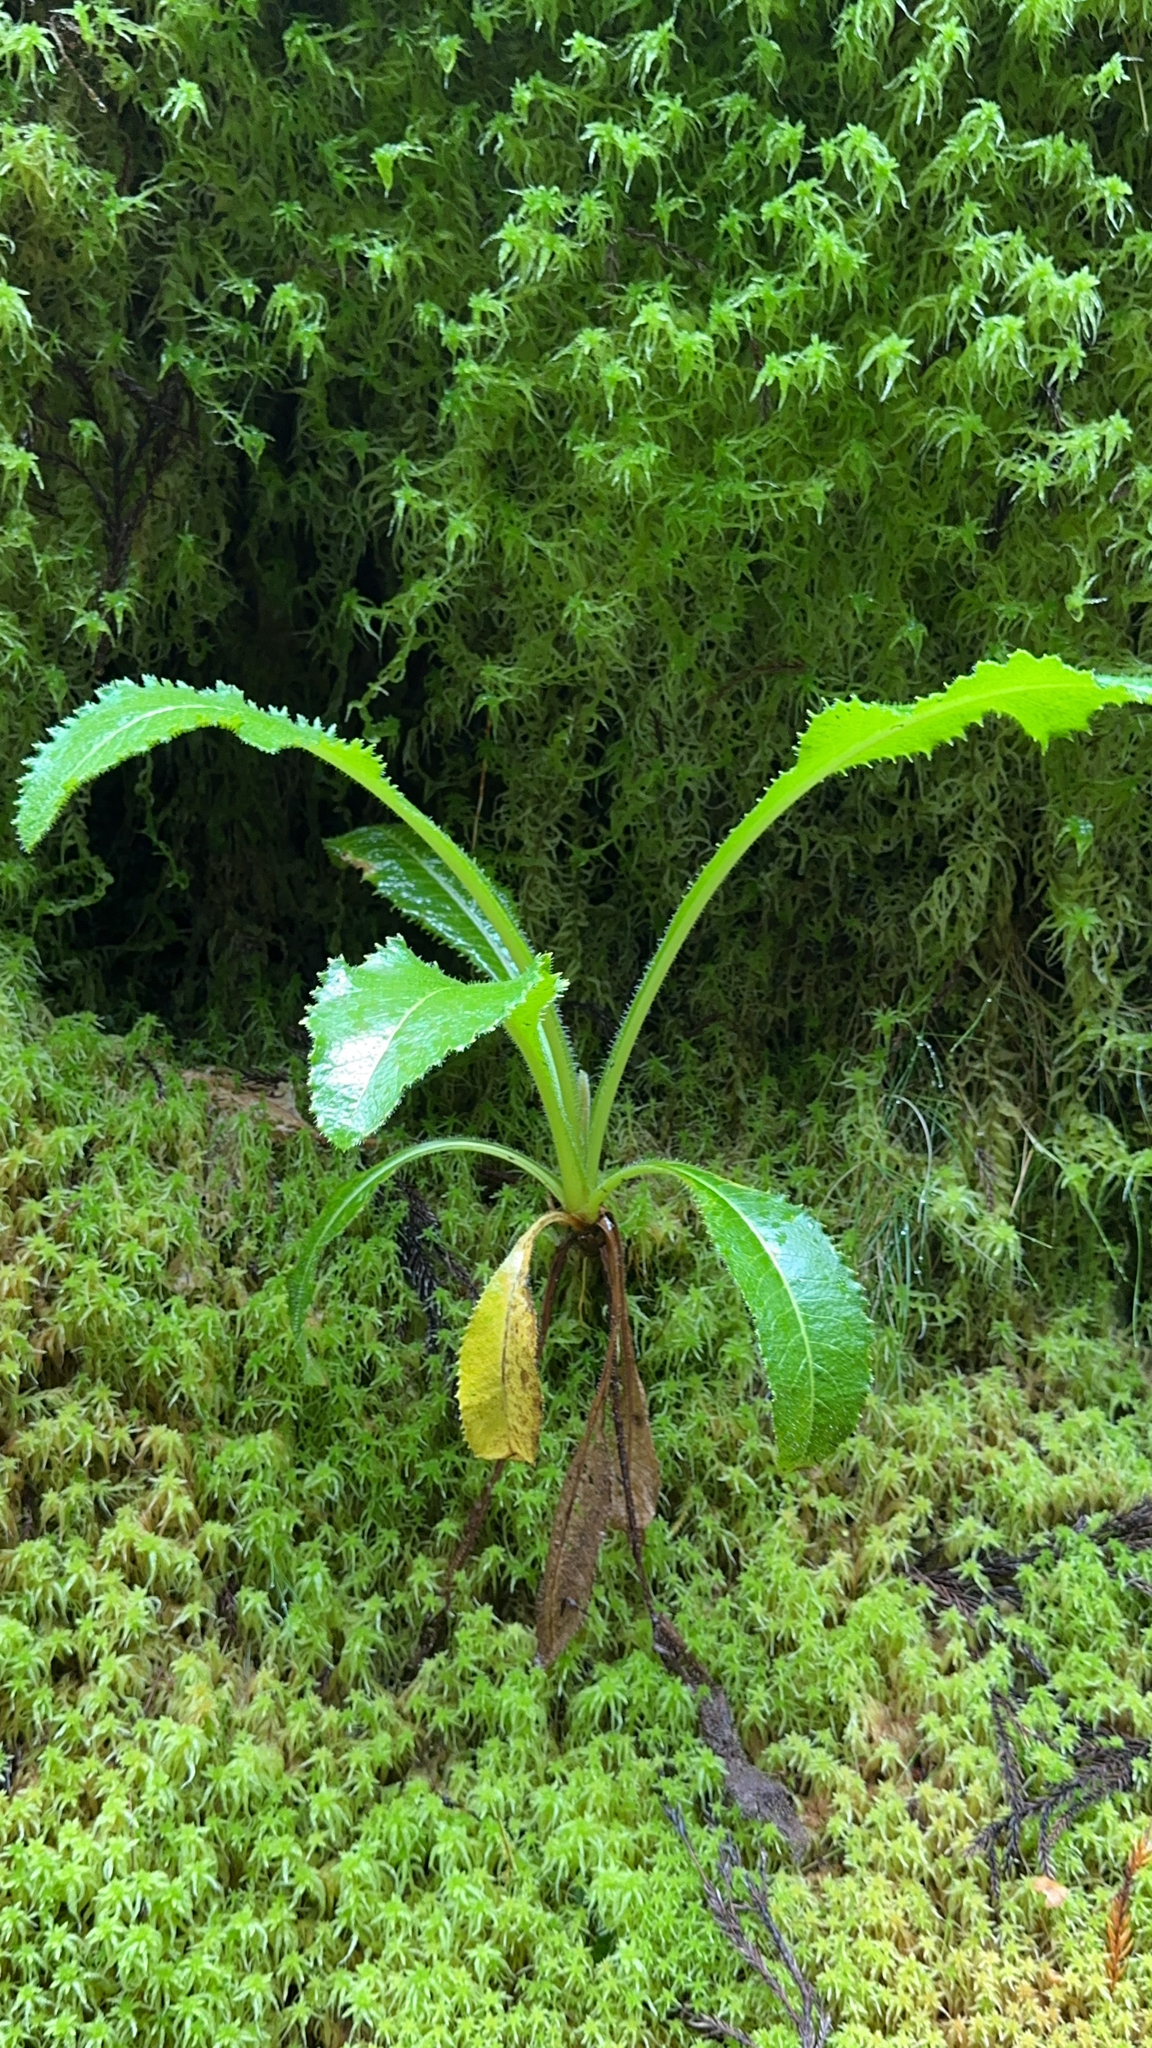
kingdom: Plantae
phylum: Tracheophyta
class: Magnoliopsida
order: Asterales
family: Asteraceae
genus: Leontodon
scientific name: Leontodon rigens
